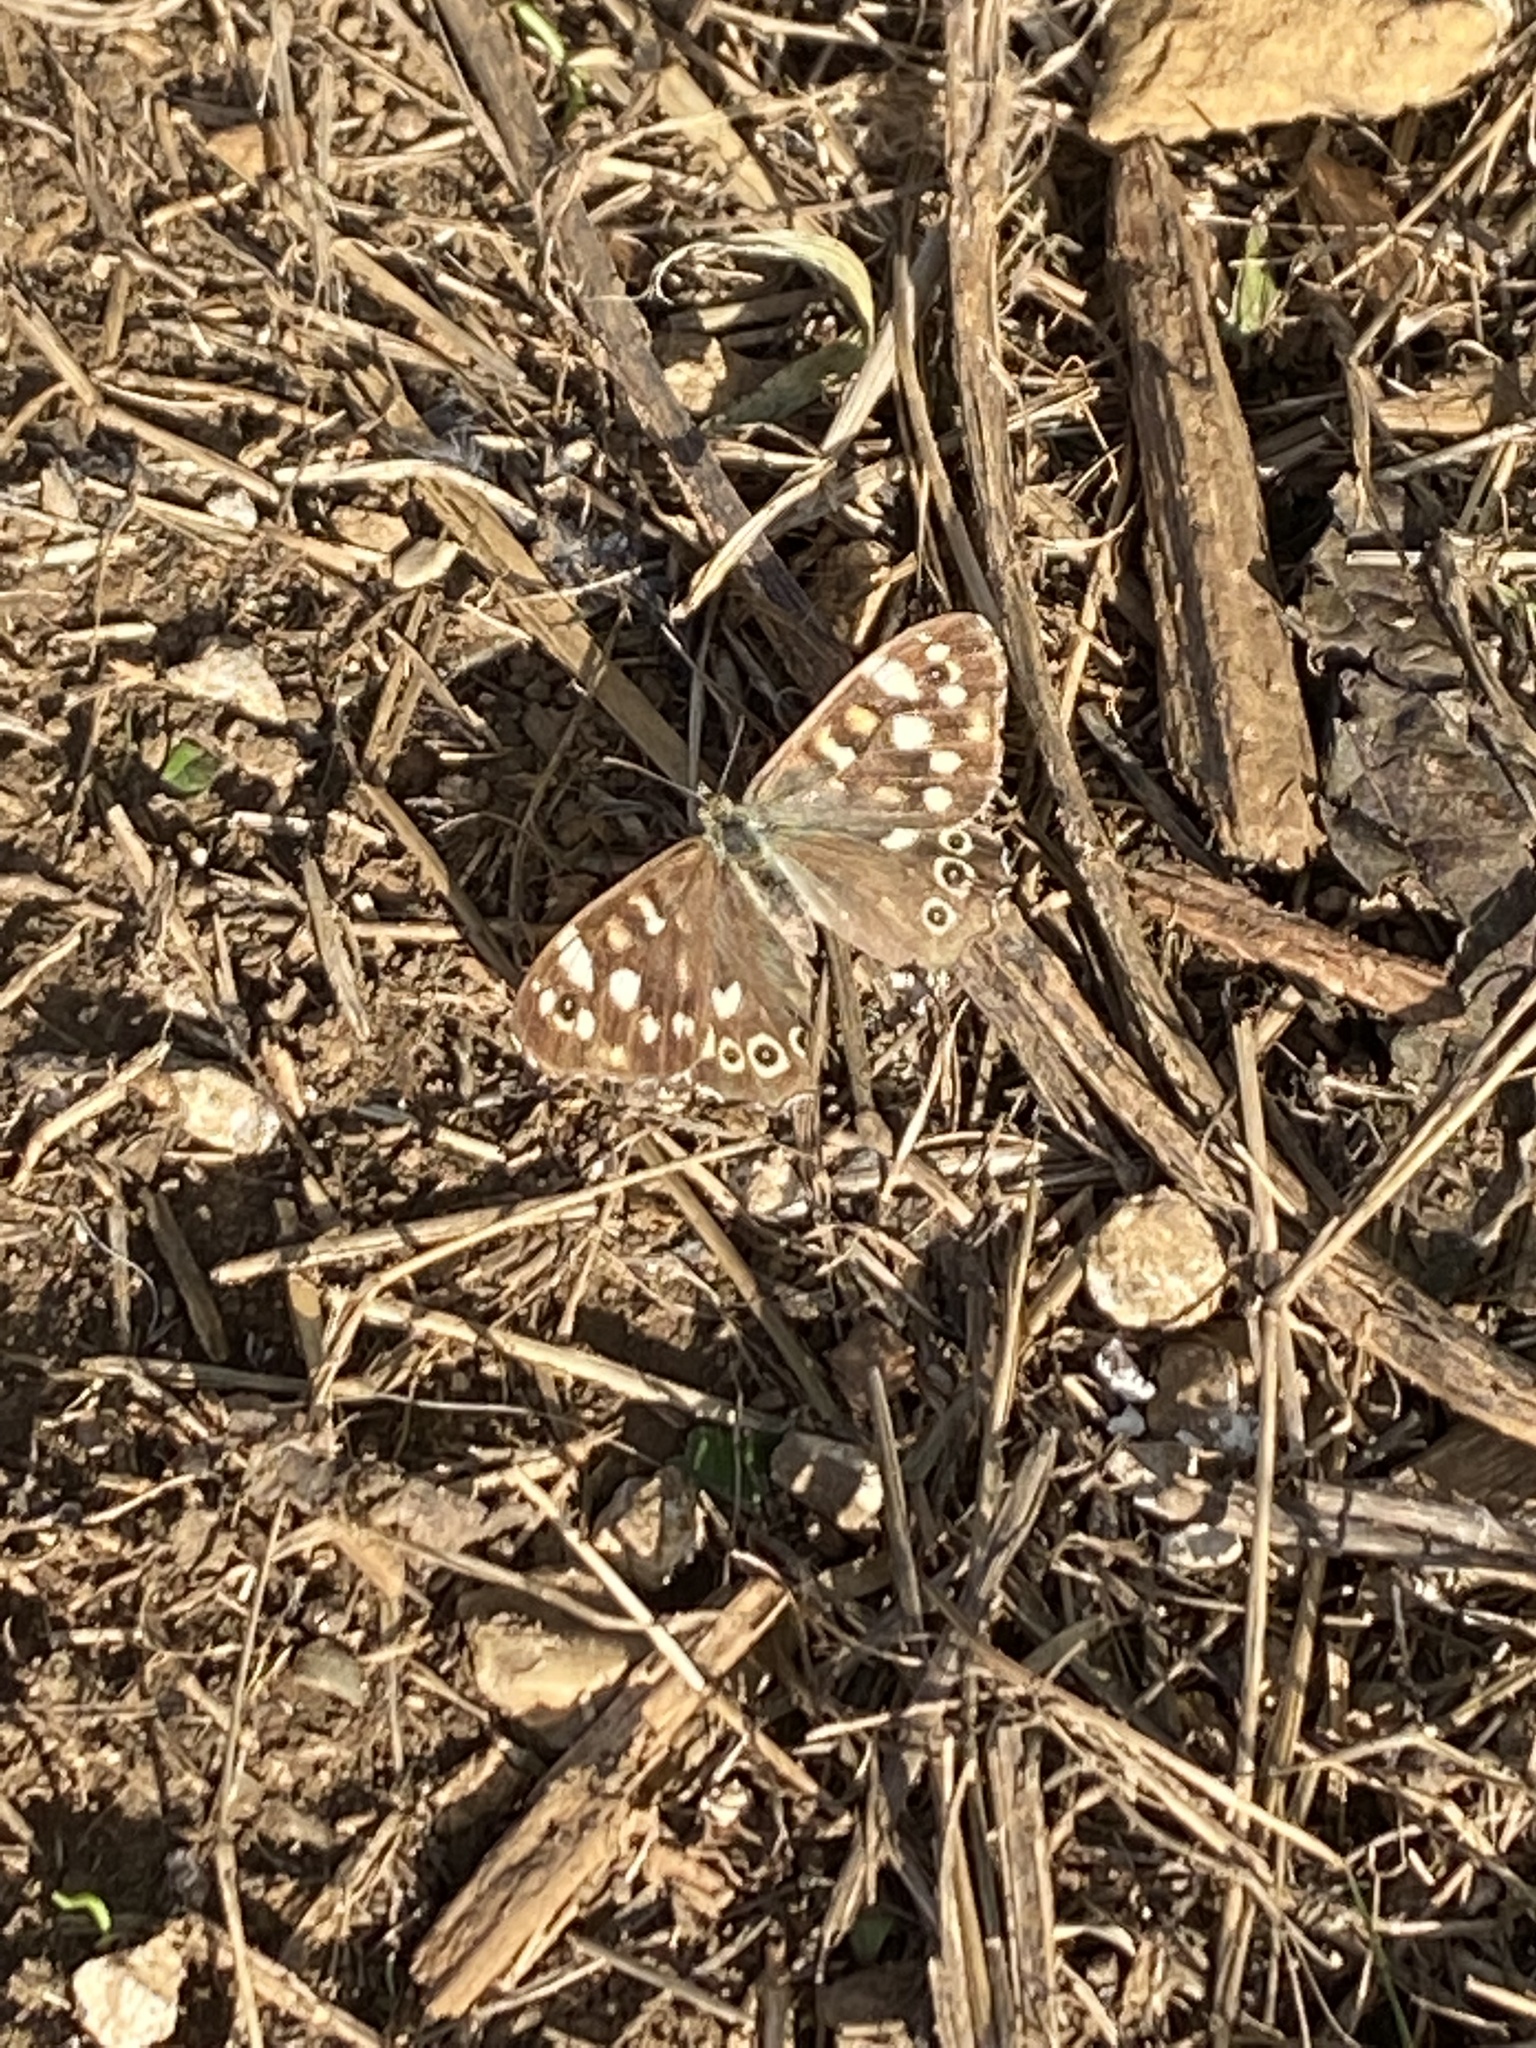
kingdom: Animalia
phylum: Arthropoda
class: Insecta
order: Lepidoptera
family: Nymphalidae
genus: Pararge
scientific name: Pararge aegeria
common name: Speckled wood
